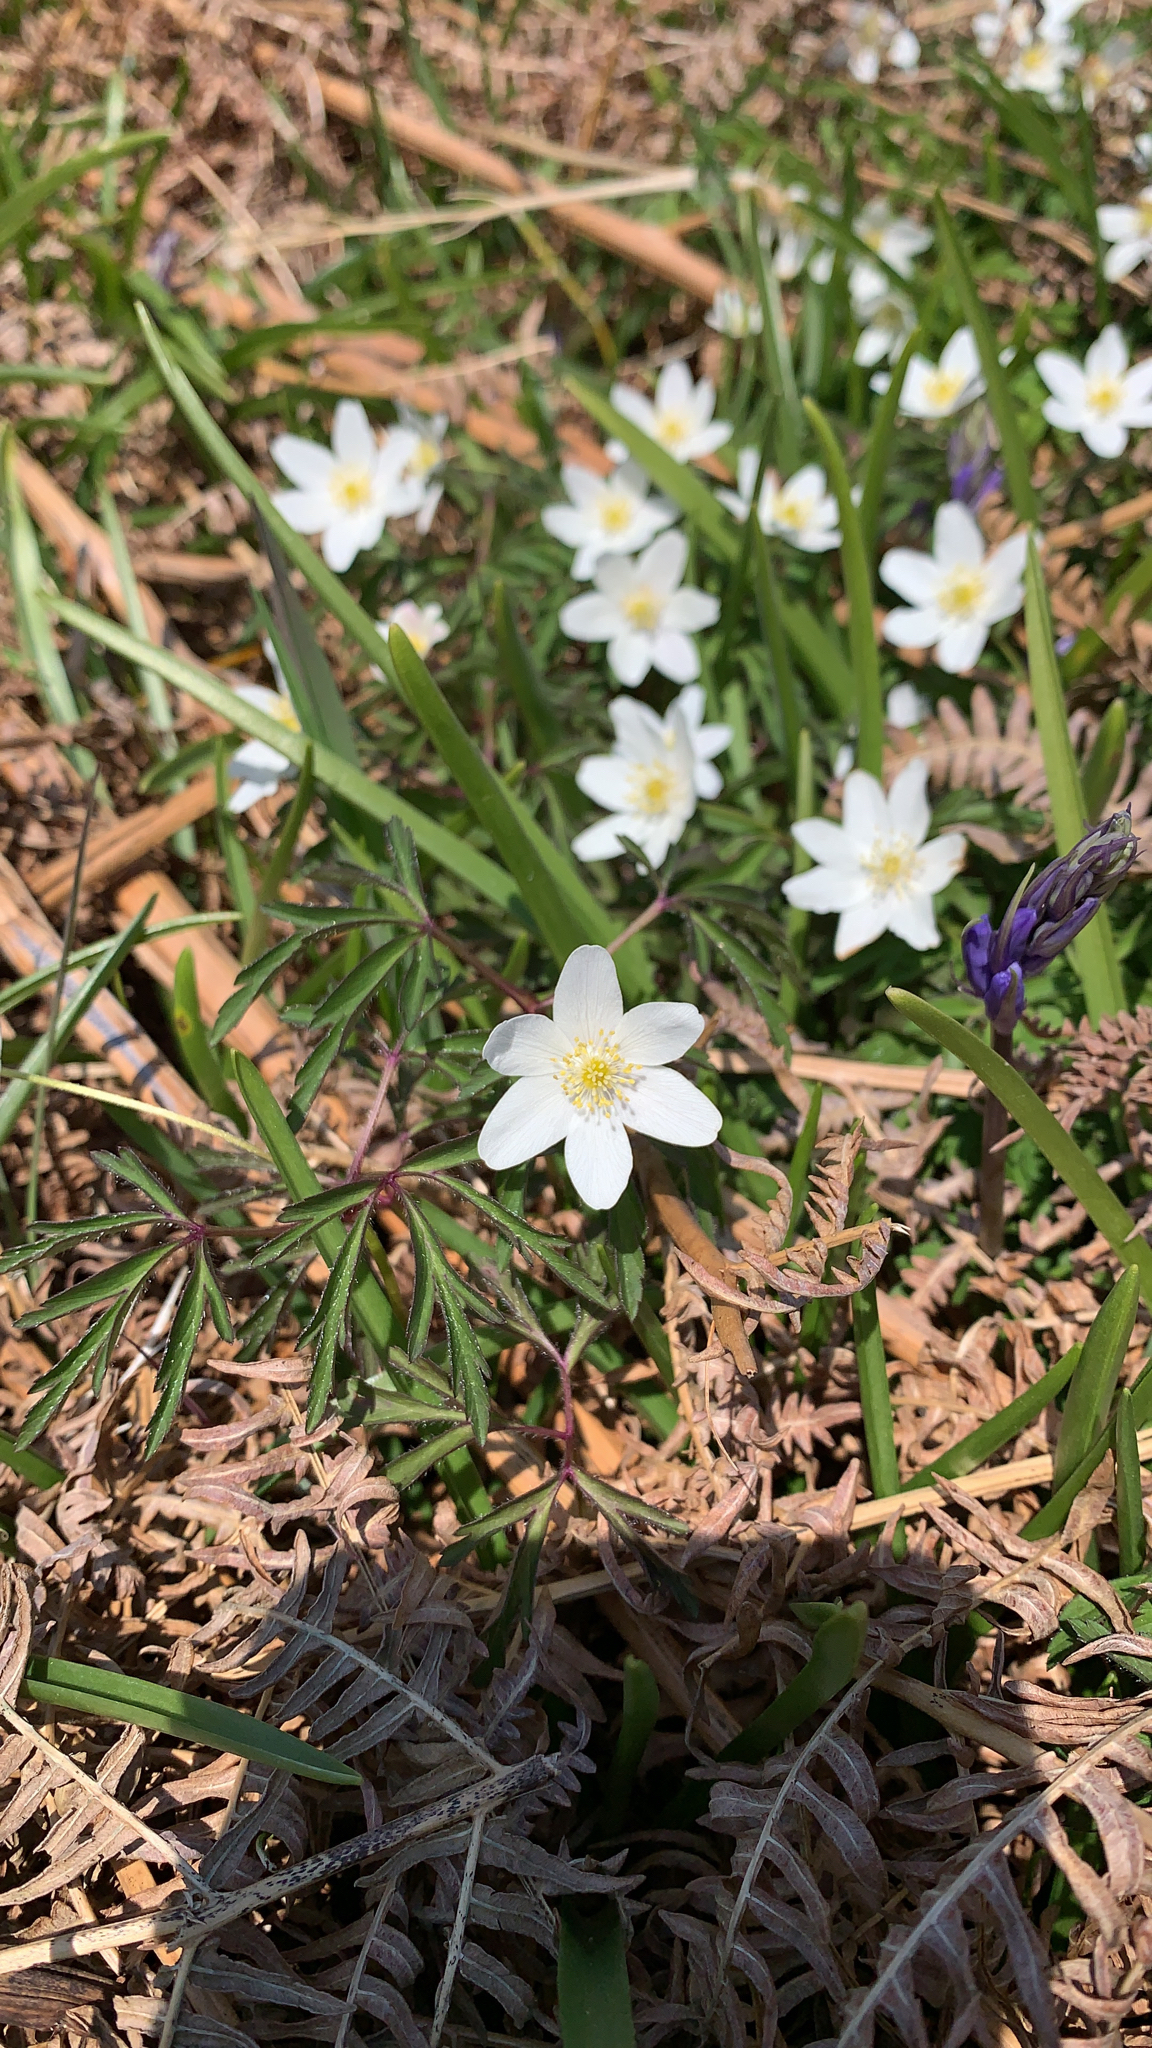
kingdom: Plantae
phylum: Tracheophyta
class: Magnoliopsida
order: Ranunculales
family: Ranunculaceae
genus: Anemone
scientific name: Anemone nemorosa
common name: Wood anemone
